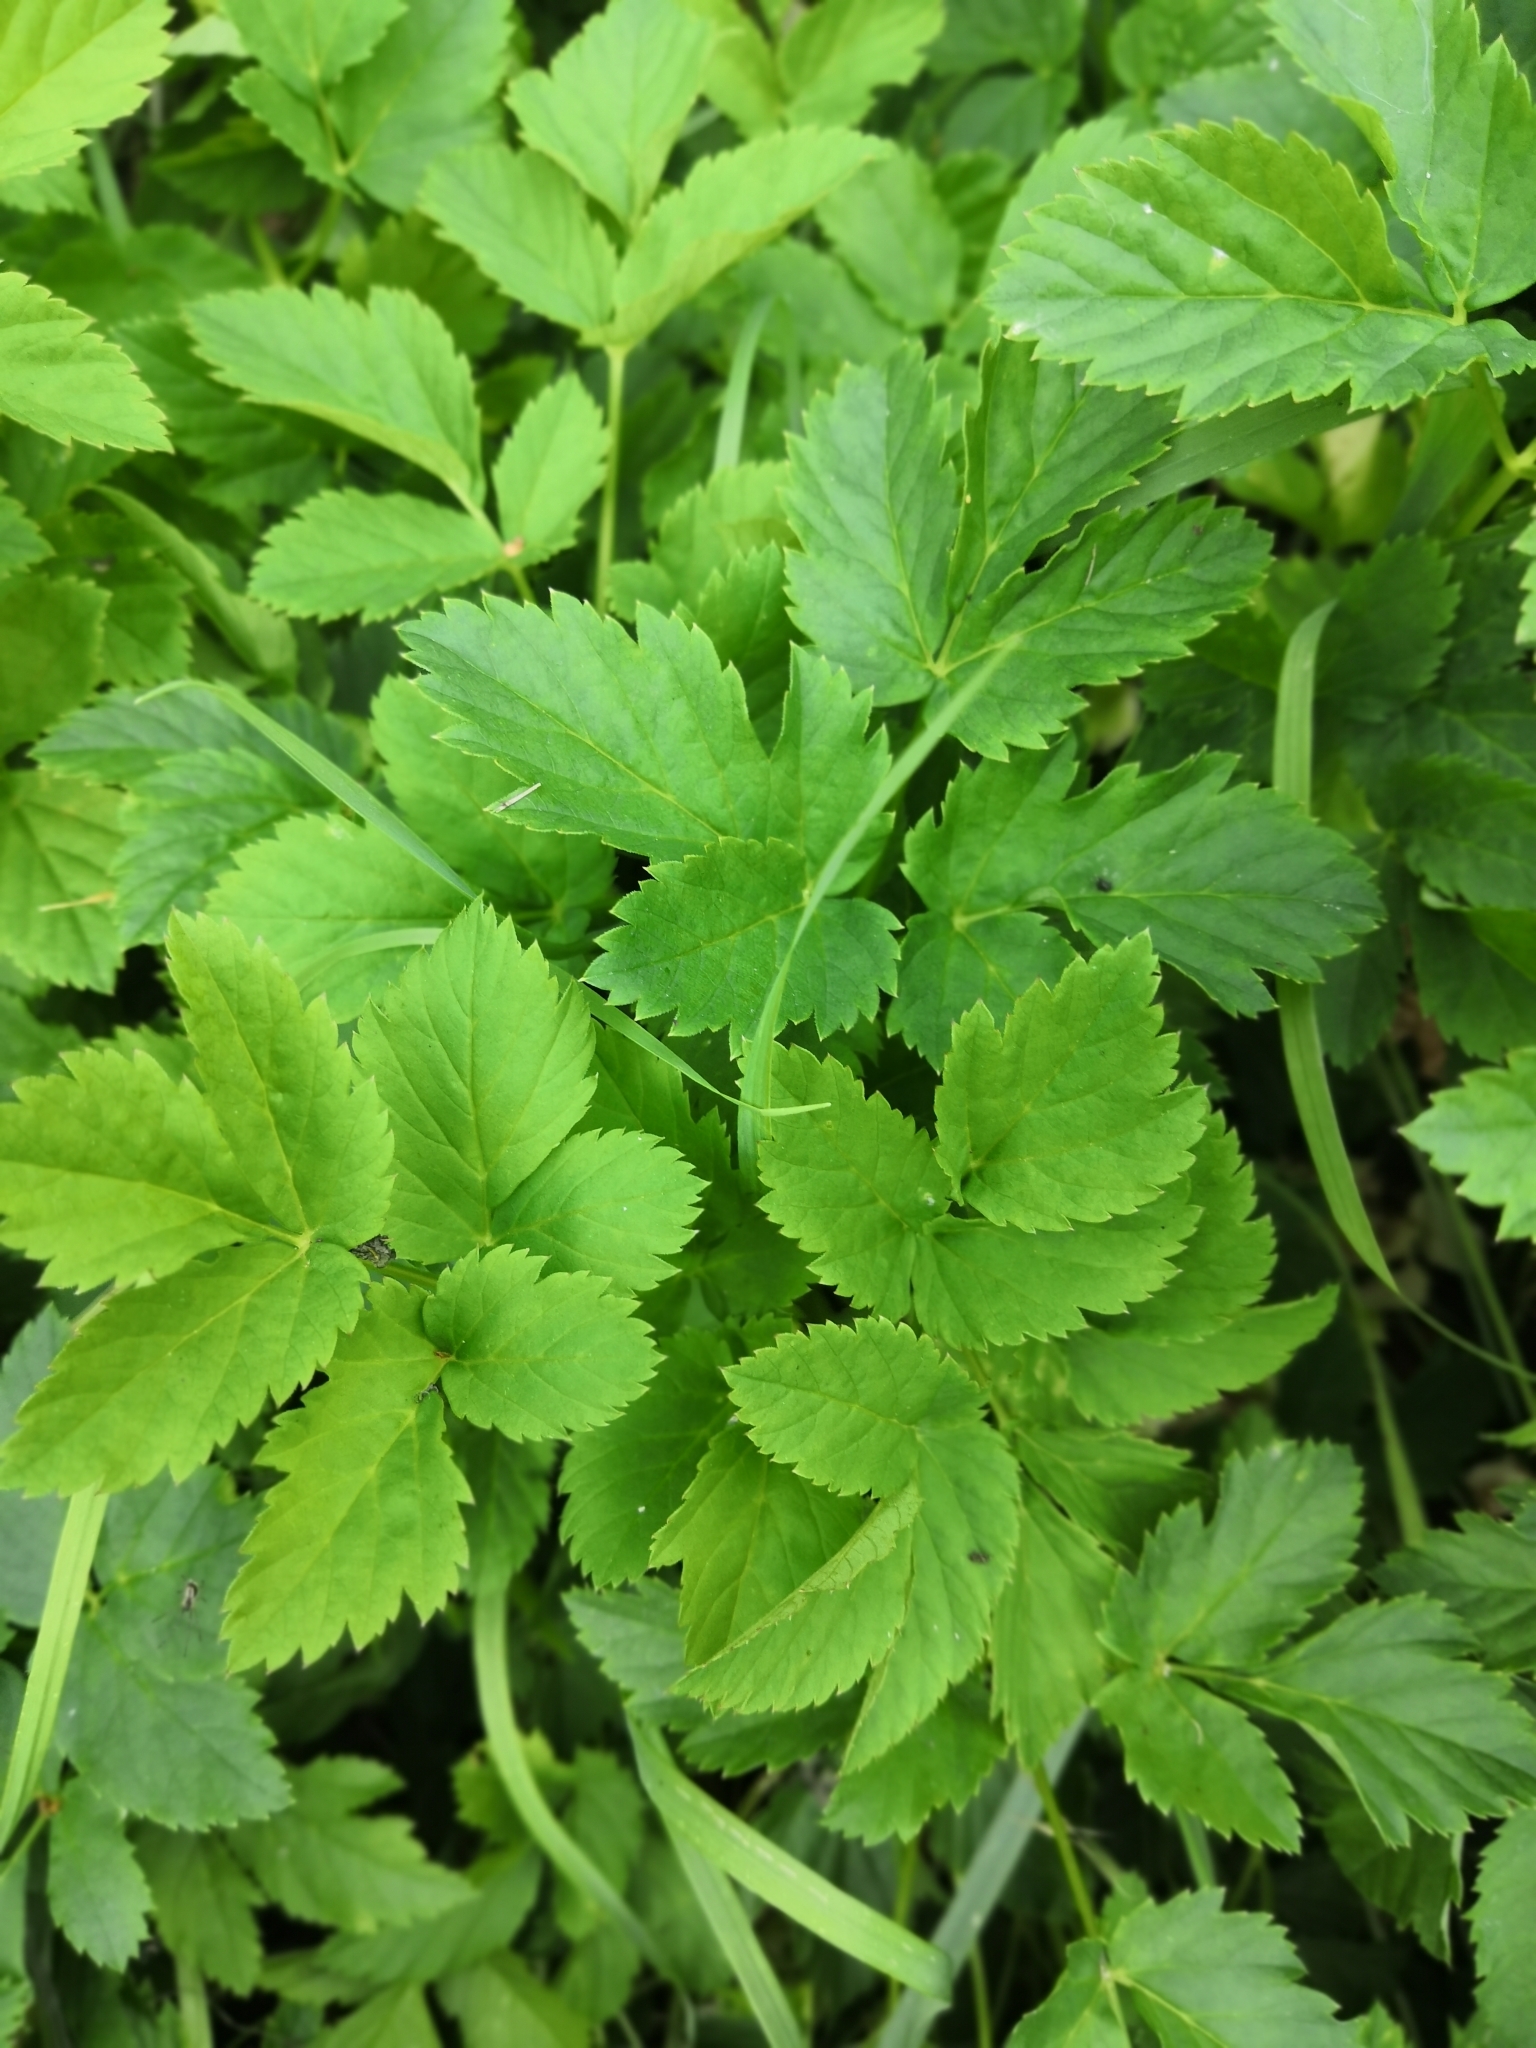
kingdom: Plantae
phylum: Tracheophyta
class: Magnoliopsida
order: Apiales
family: Apiaceae
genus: Aegopodium
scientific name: Aegopodium podagraria
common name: Ground-elder
